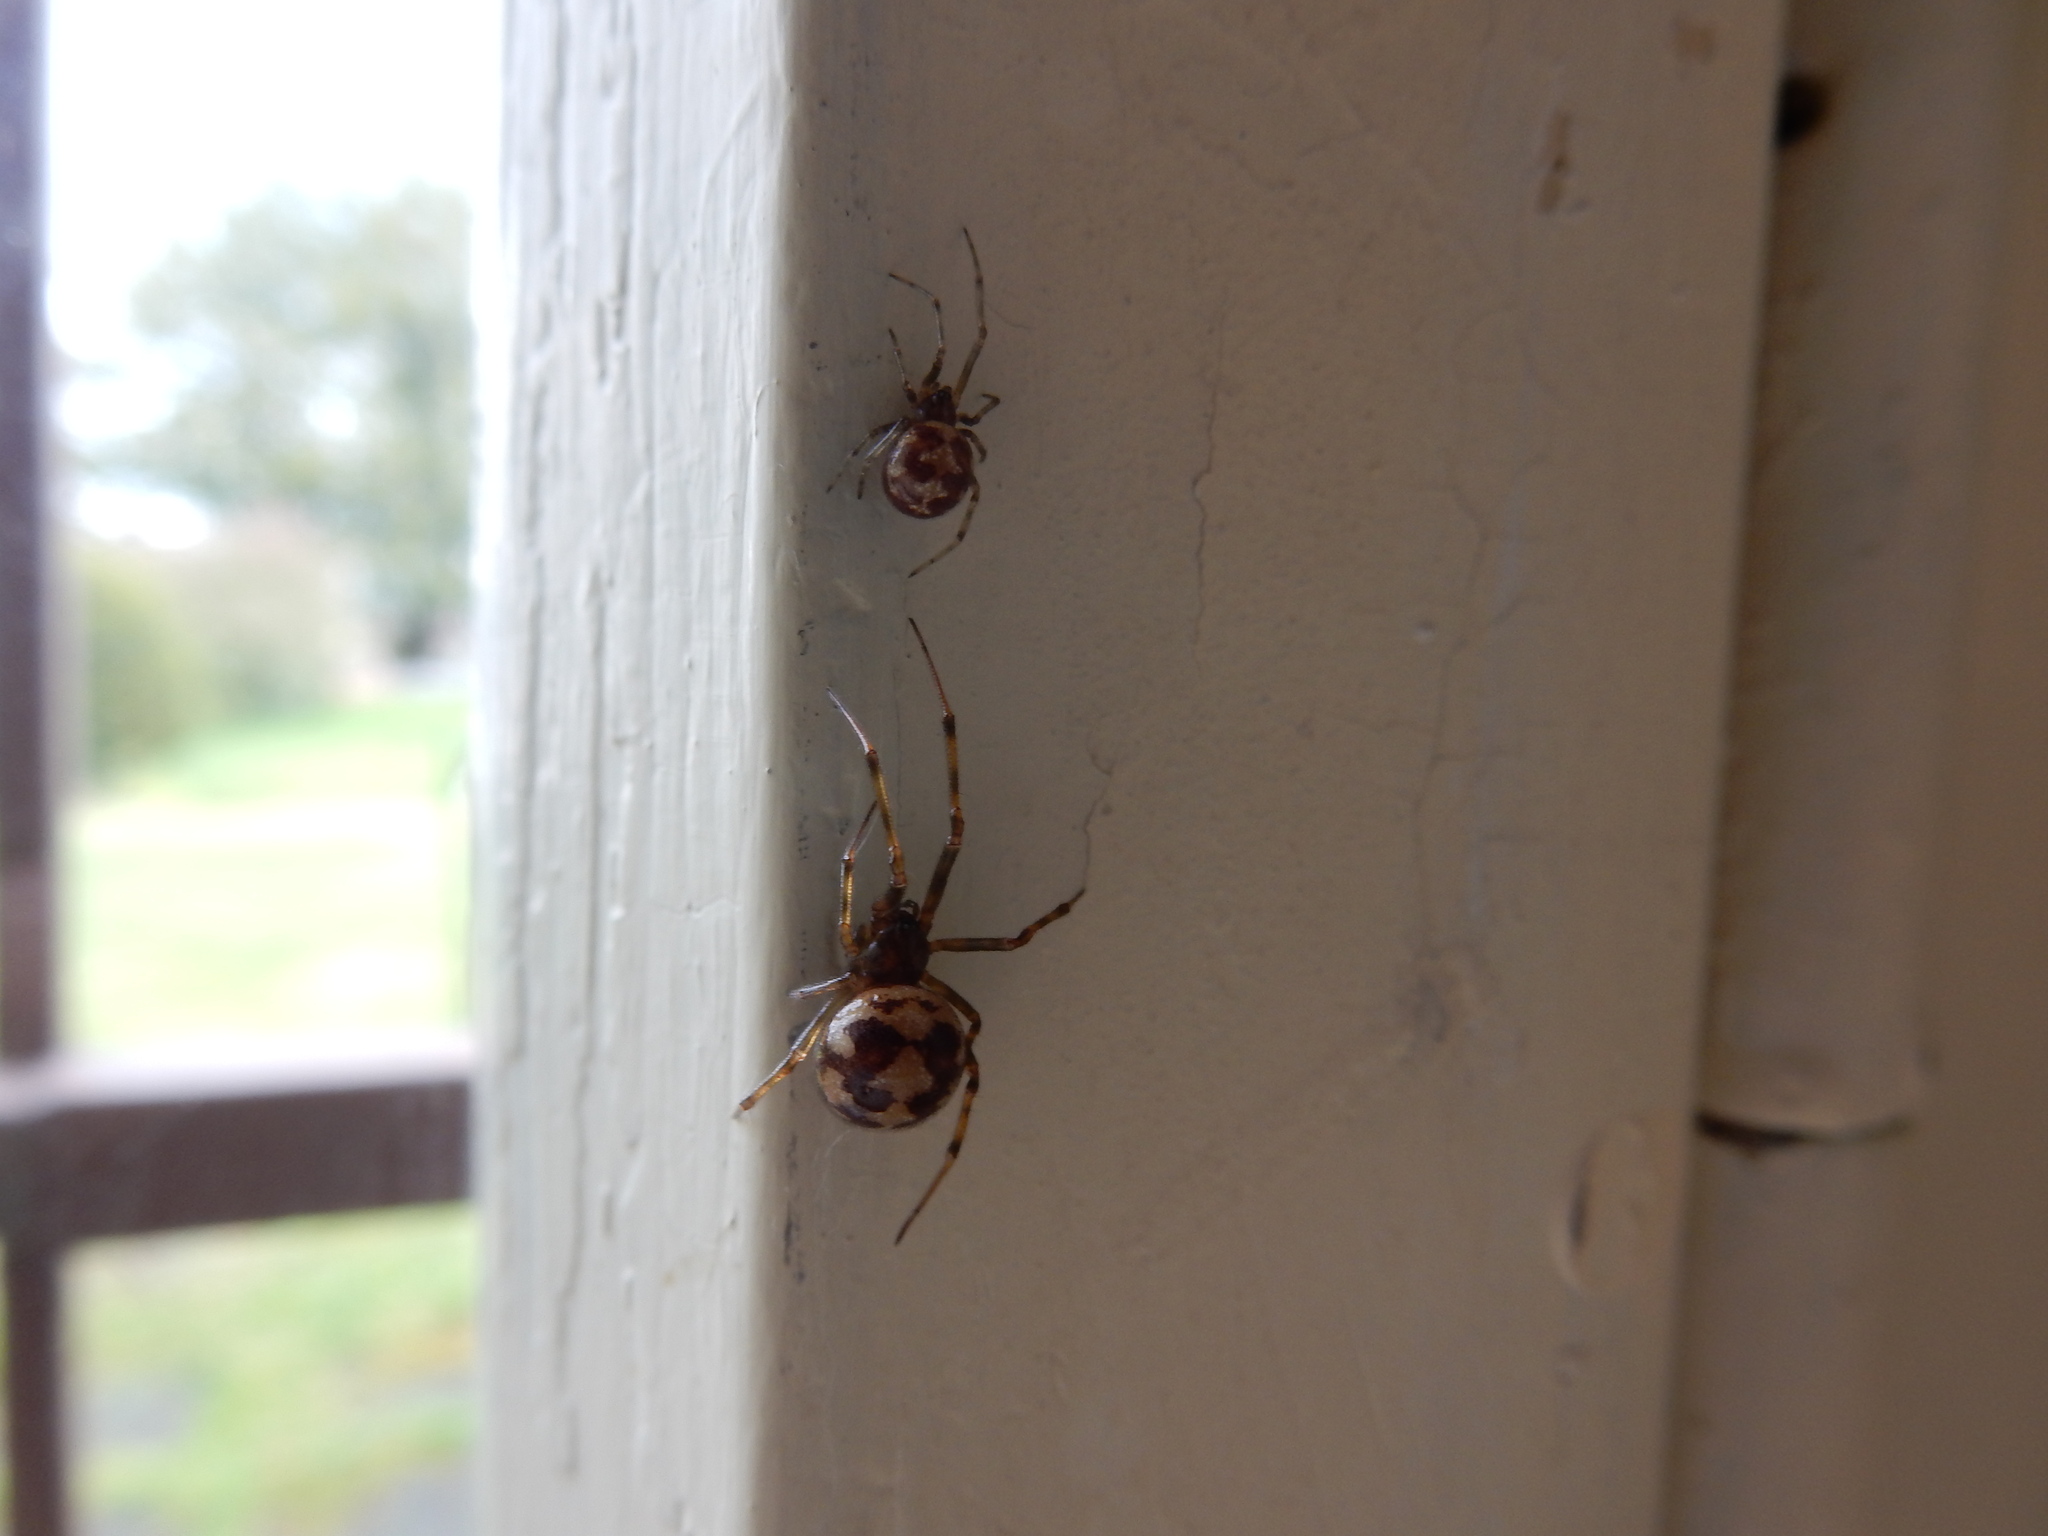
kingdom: Animalia
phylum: Arthropoda
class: Arachnida
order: Araneae
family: Theridiidae
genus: Steatoda
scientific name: Steatoda triangulosa
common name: Triangulate bud spider
